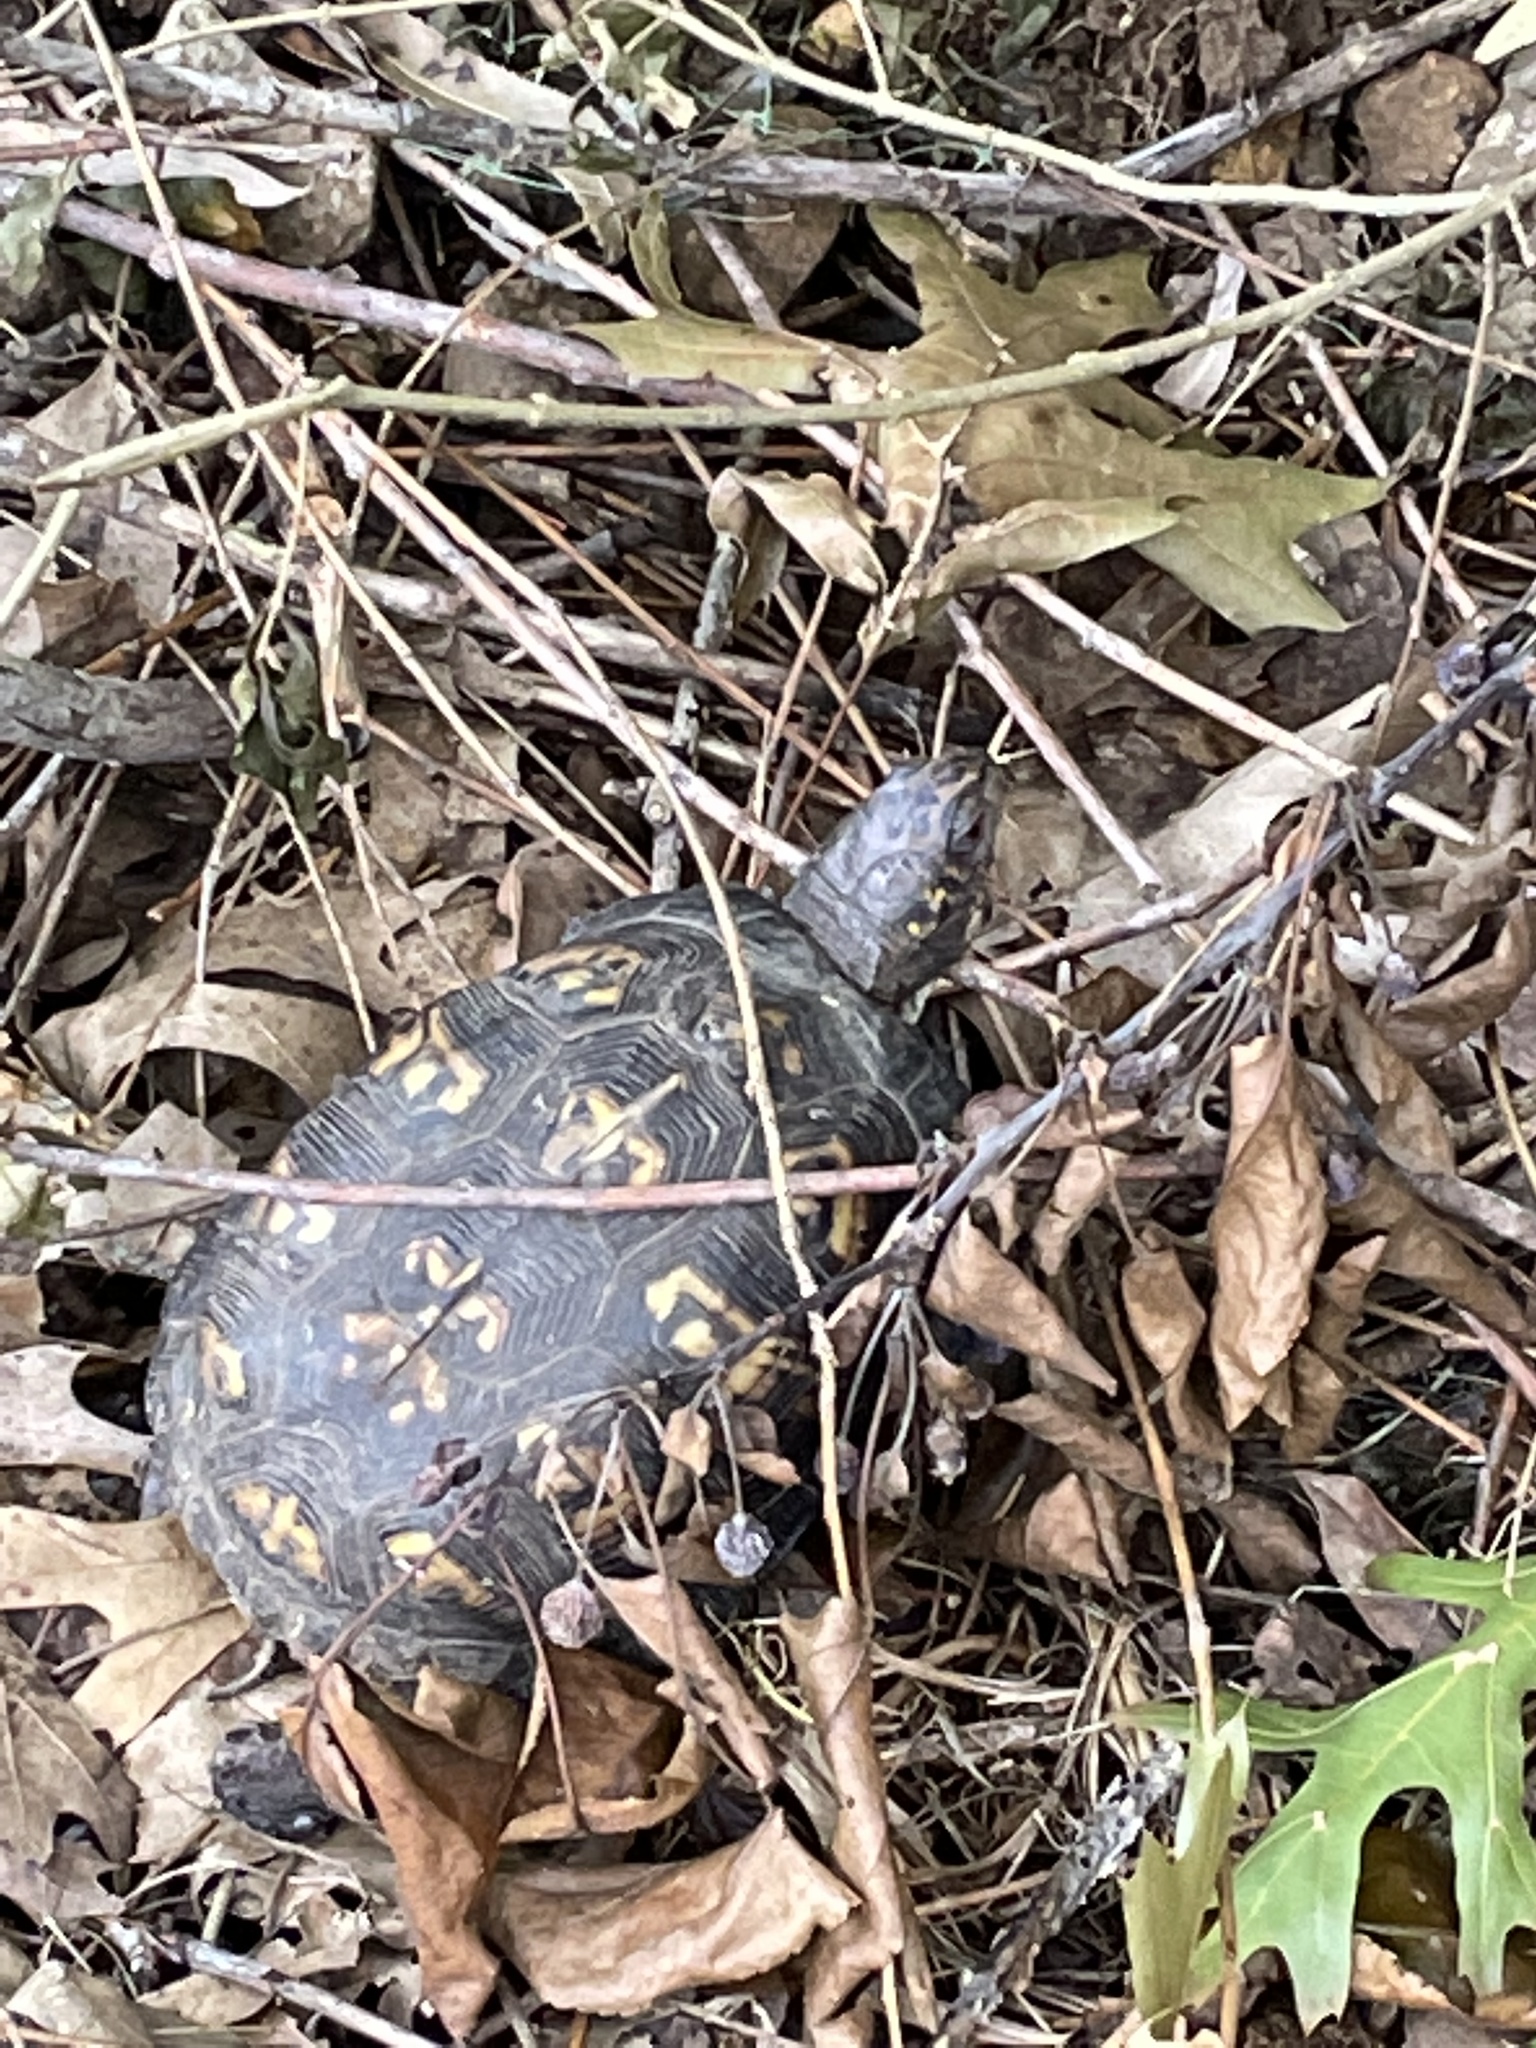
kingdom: Animalia
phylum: Chordata
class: Testudines
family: Emydidae
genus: Terrapene
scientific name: Terrapene carolina
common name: Common box turtle
